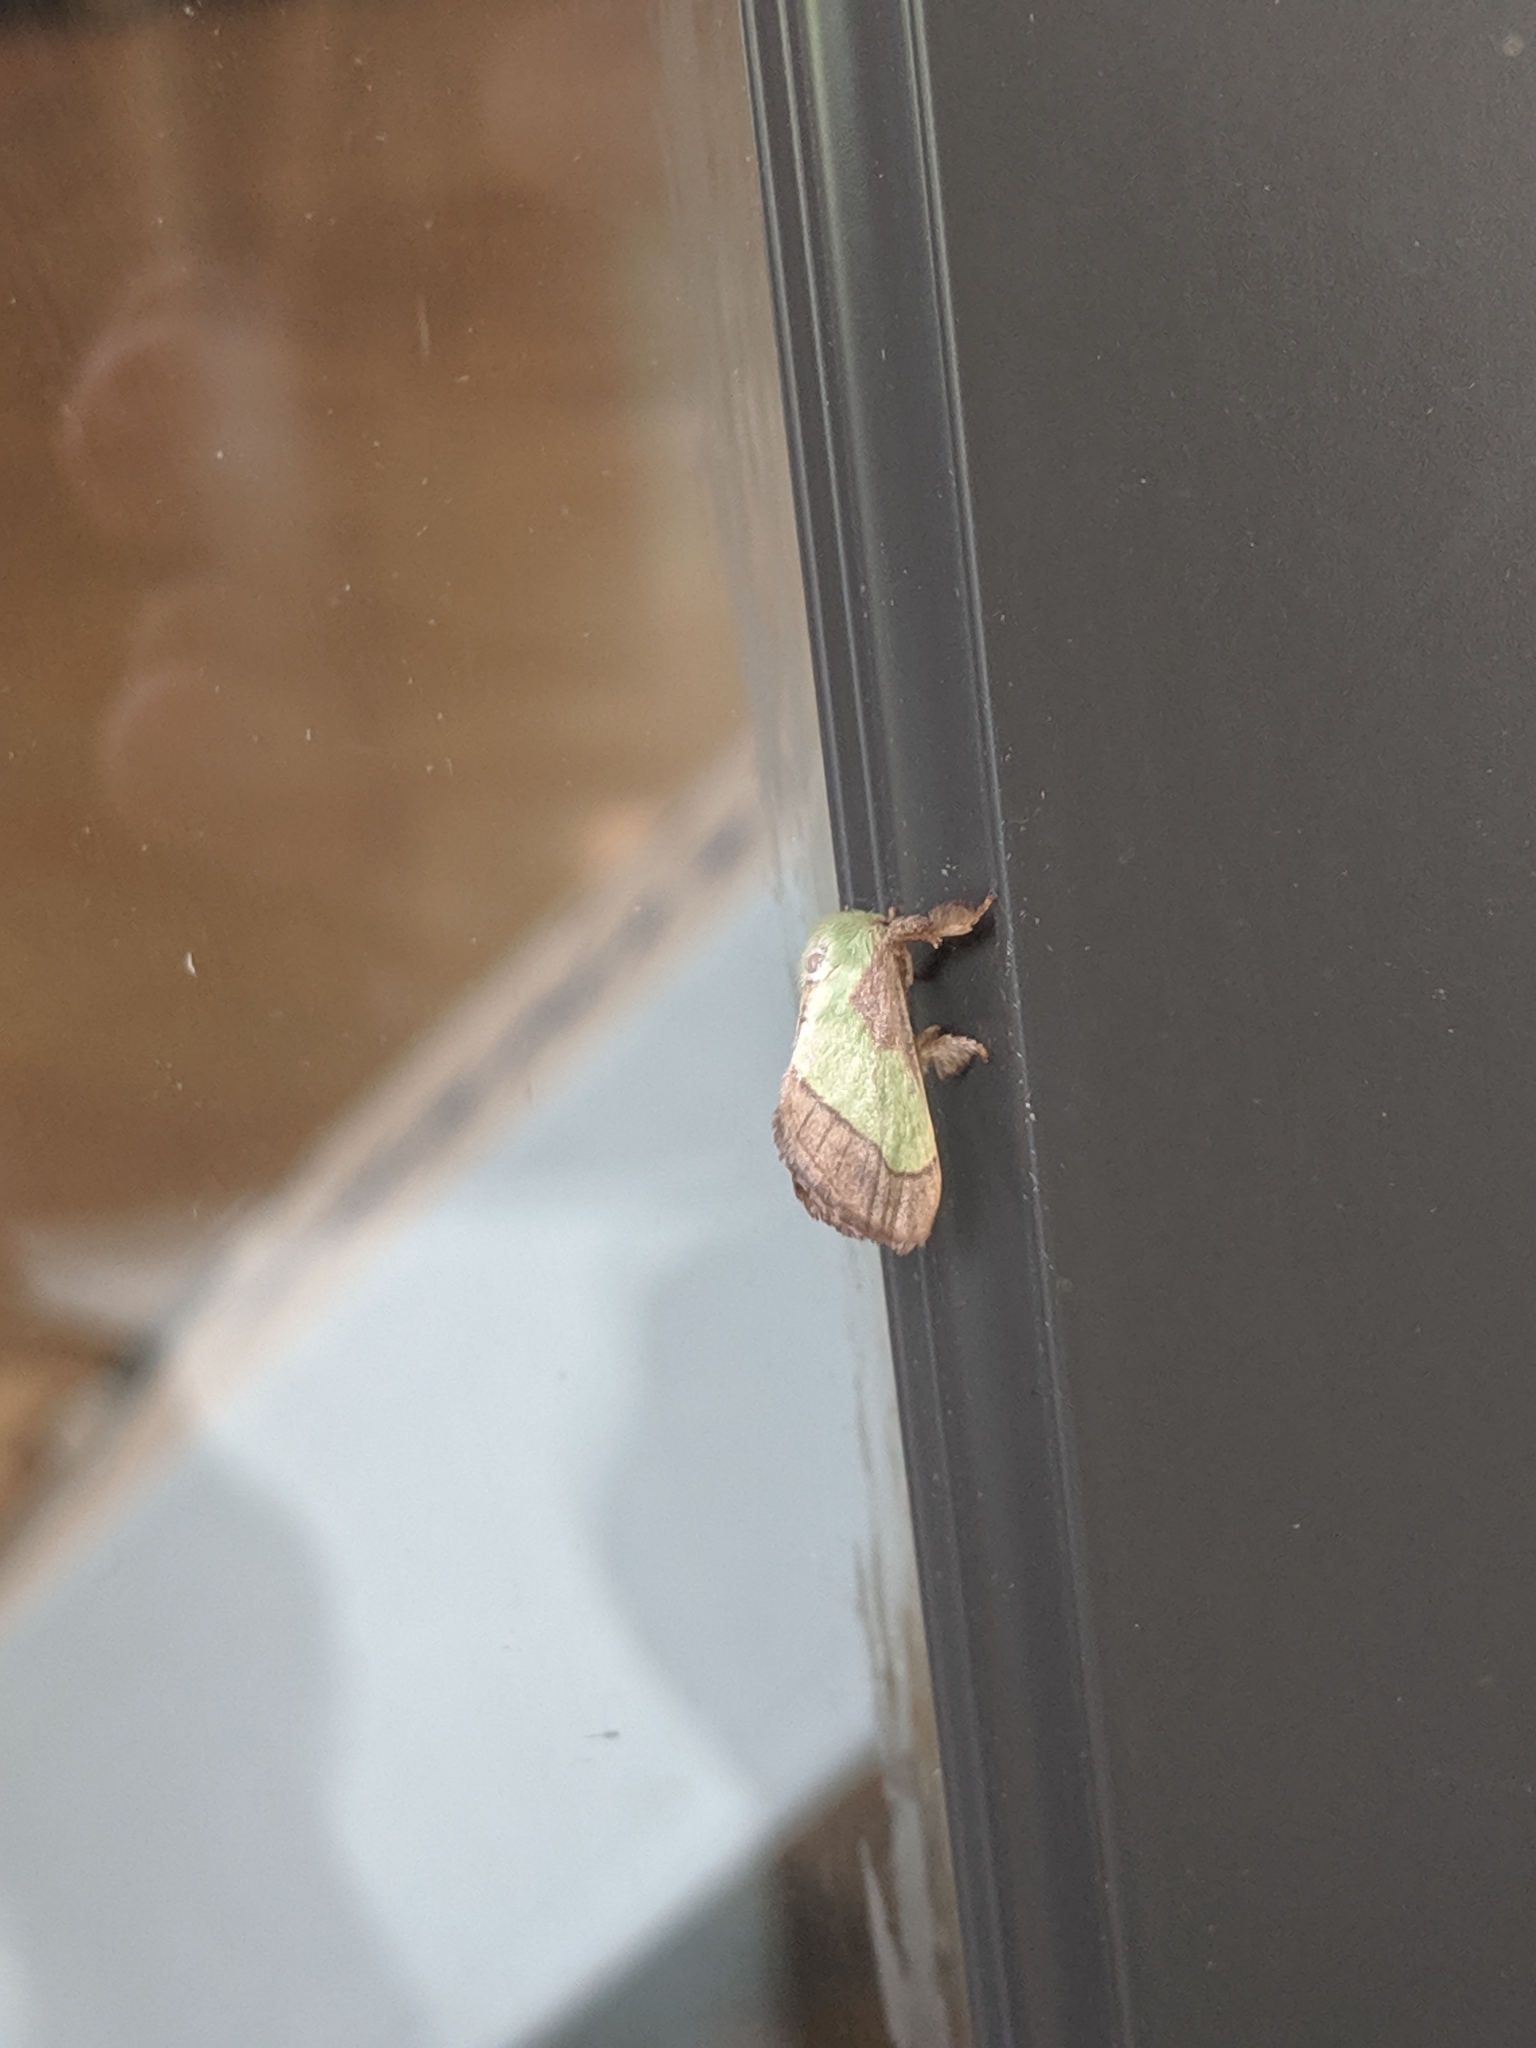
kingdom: Animalia
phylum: Arthropoda
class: Insecta
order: Lepidoptera
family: Limacodidae
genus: Parasa
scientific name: Parasa chloris
